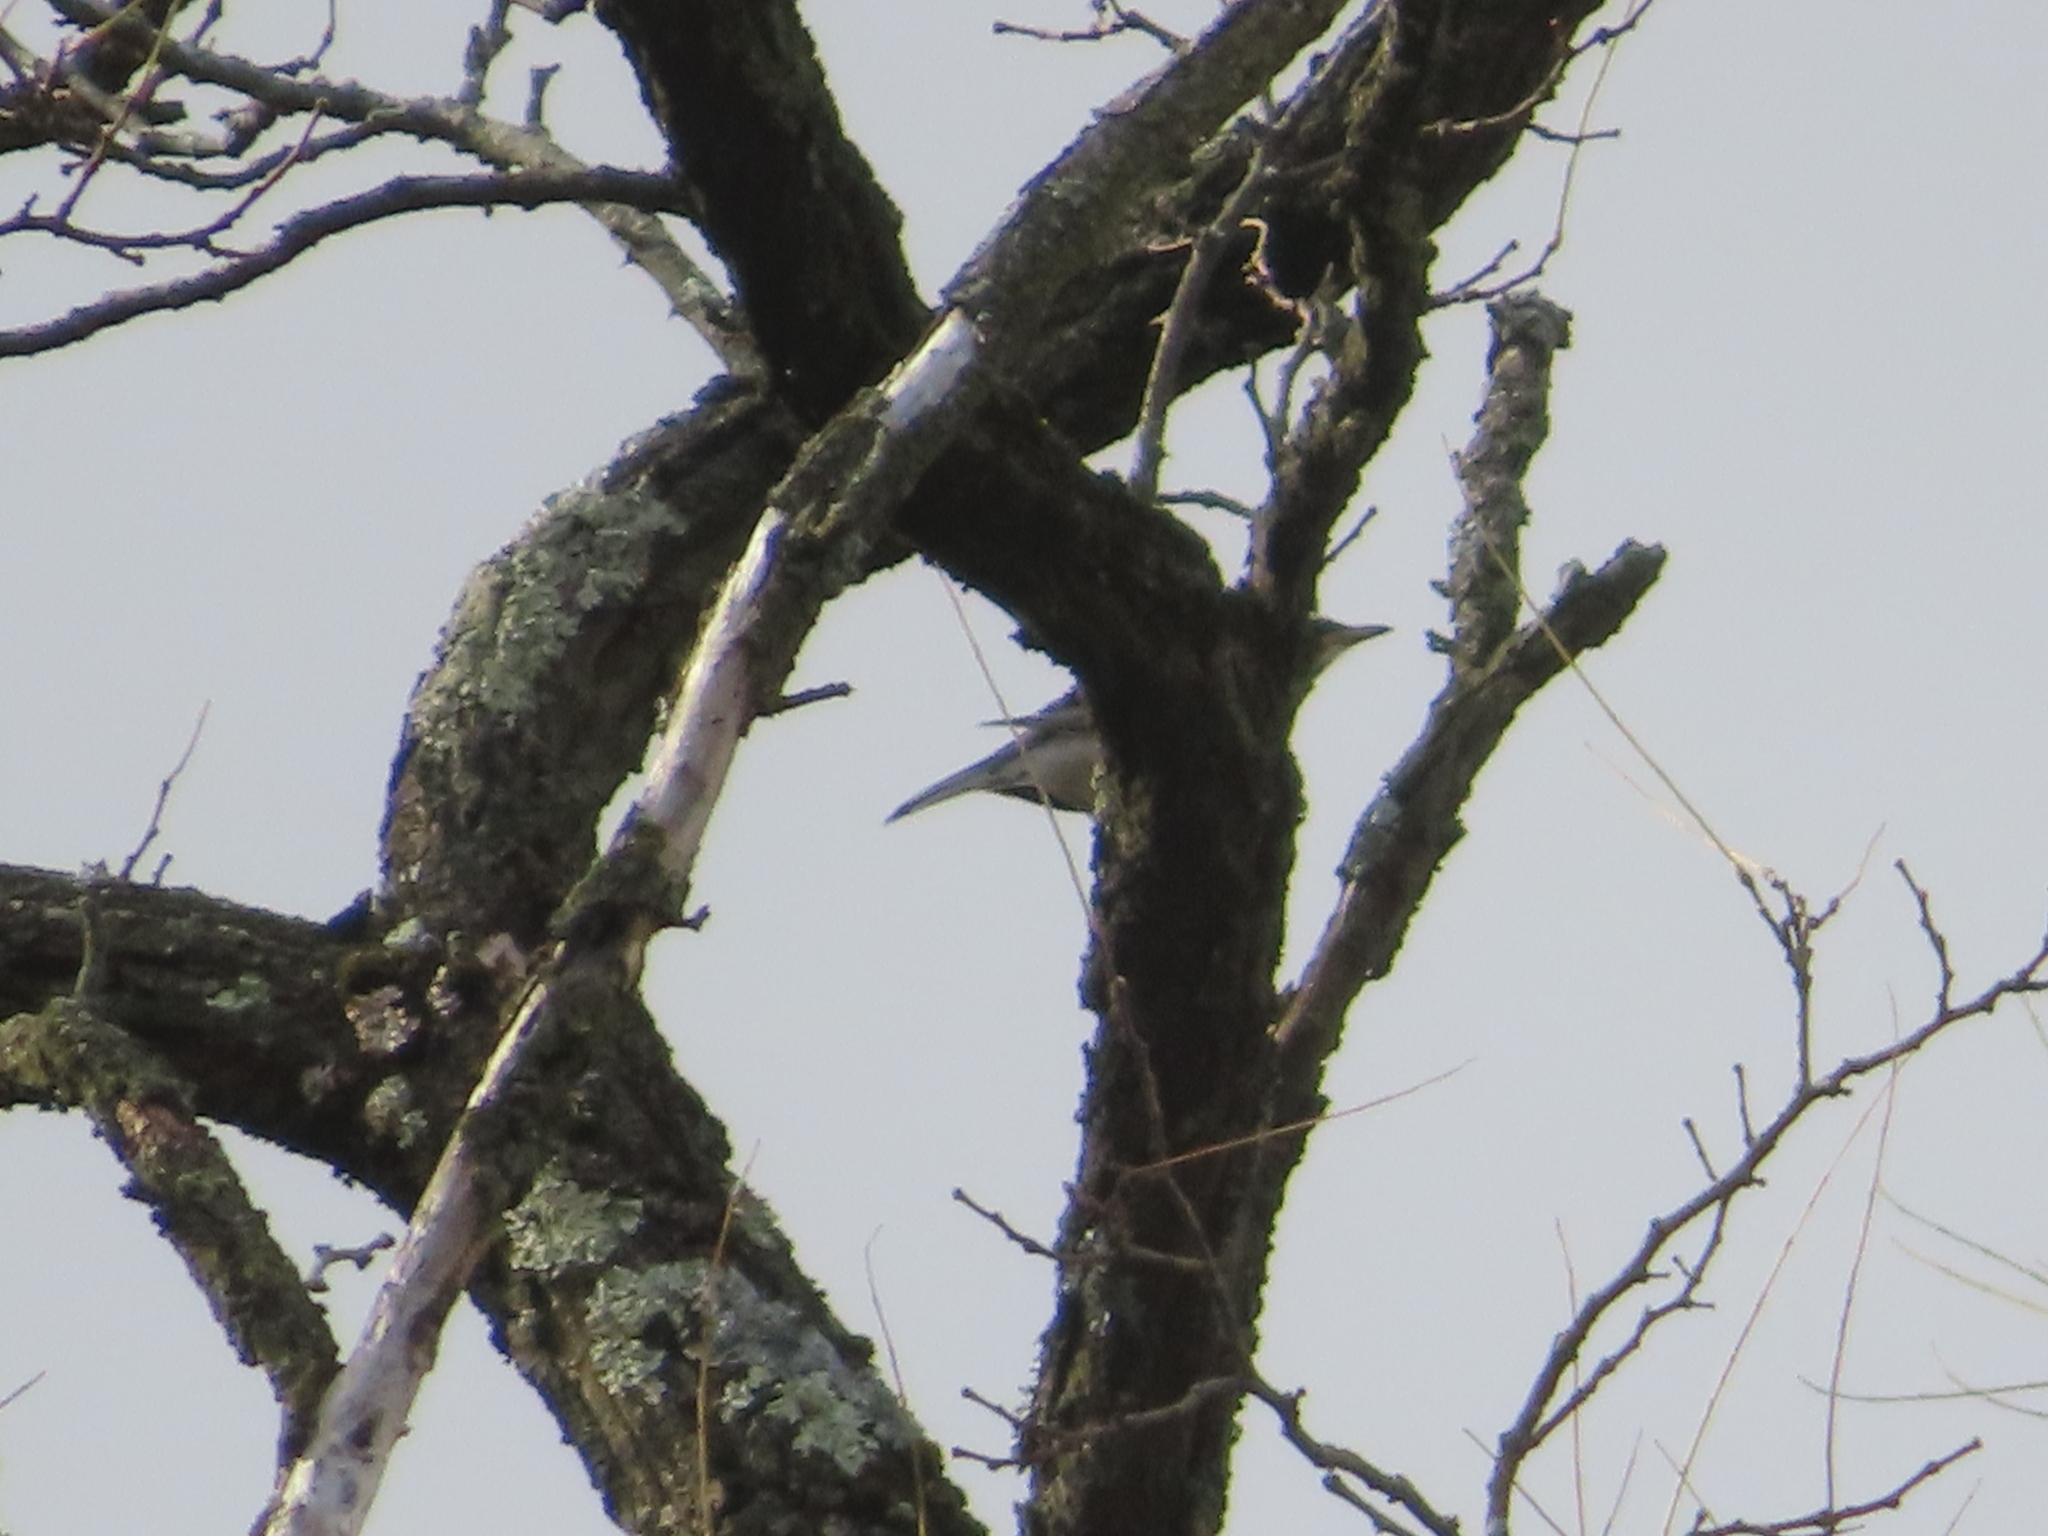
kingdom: Animalia
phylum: Chordata
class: Aves
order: Passeriformes
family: Turdidae
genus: Turdus
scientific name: Turdus migratorius
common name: American robin
